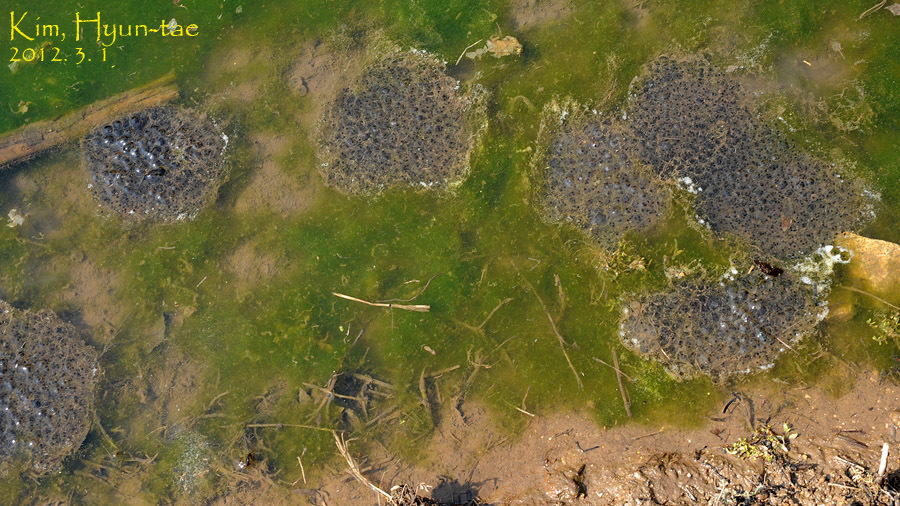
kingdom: Animalia
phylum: Chordata
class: Amphibia
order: Anura
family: Ranidae
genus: Rana
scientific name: Rana uenoi
